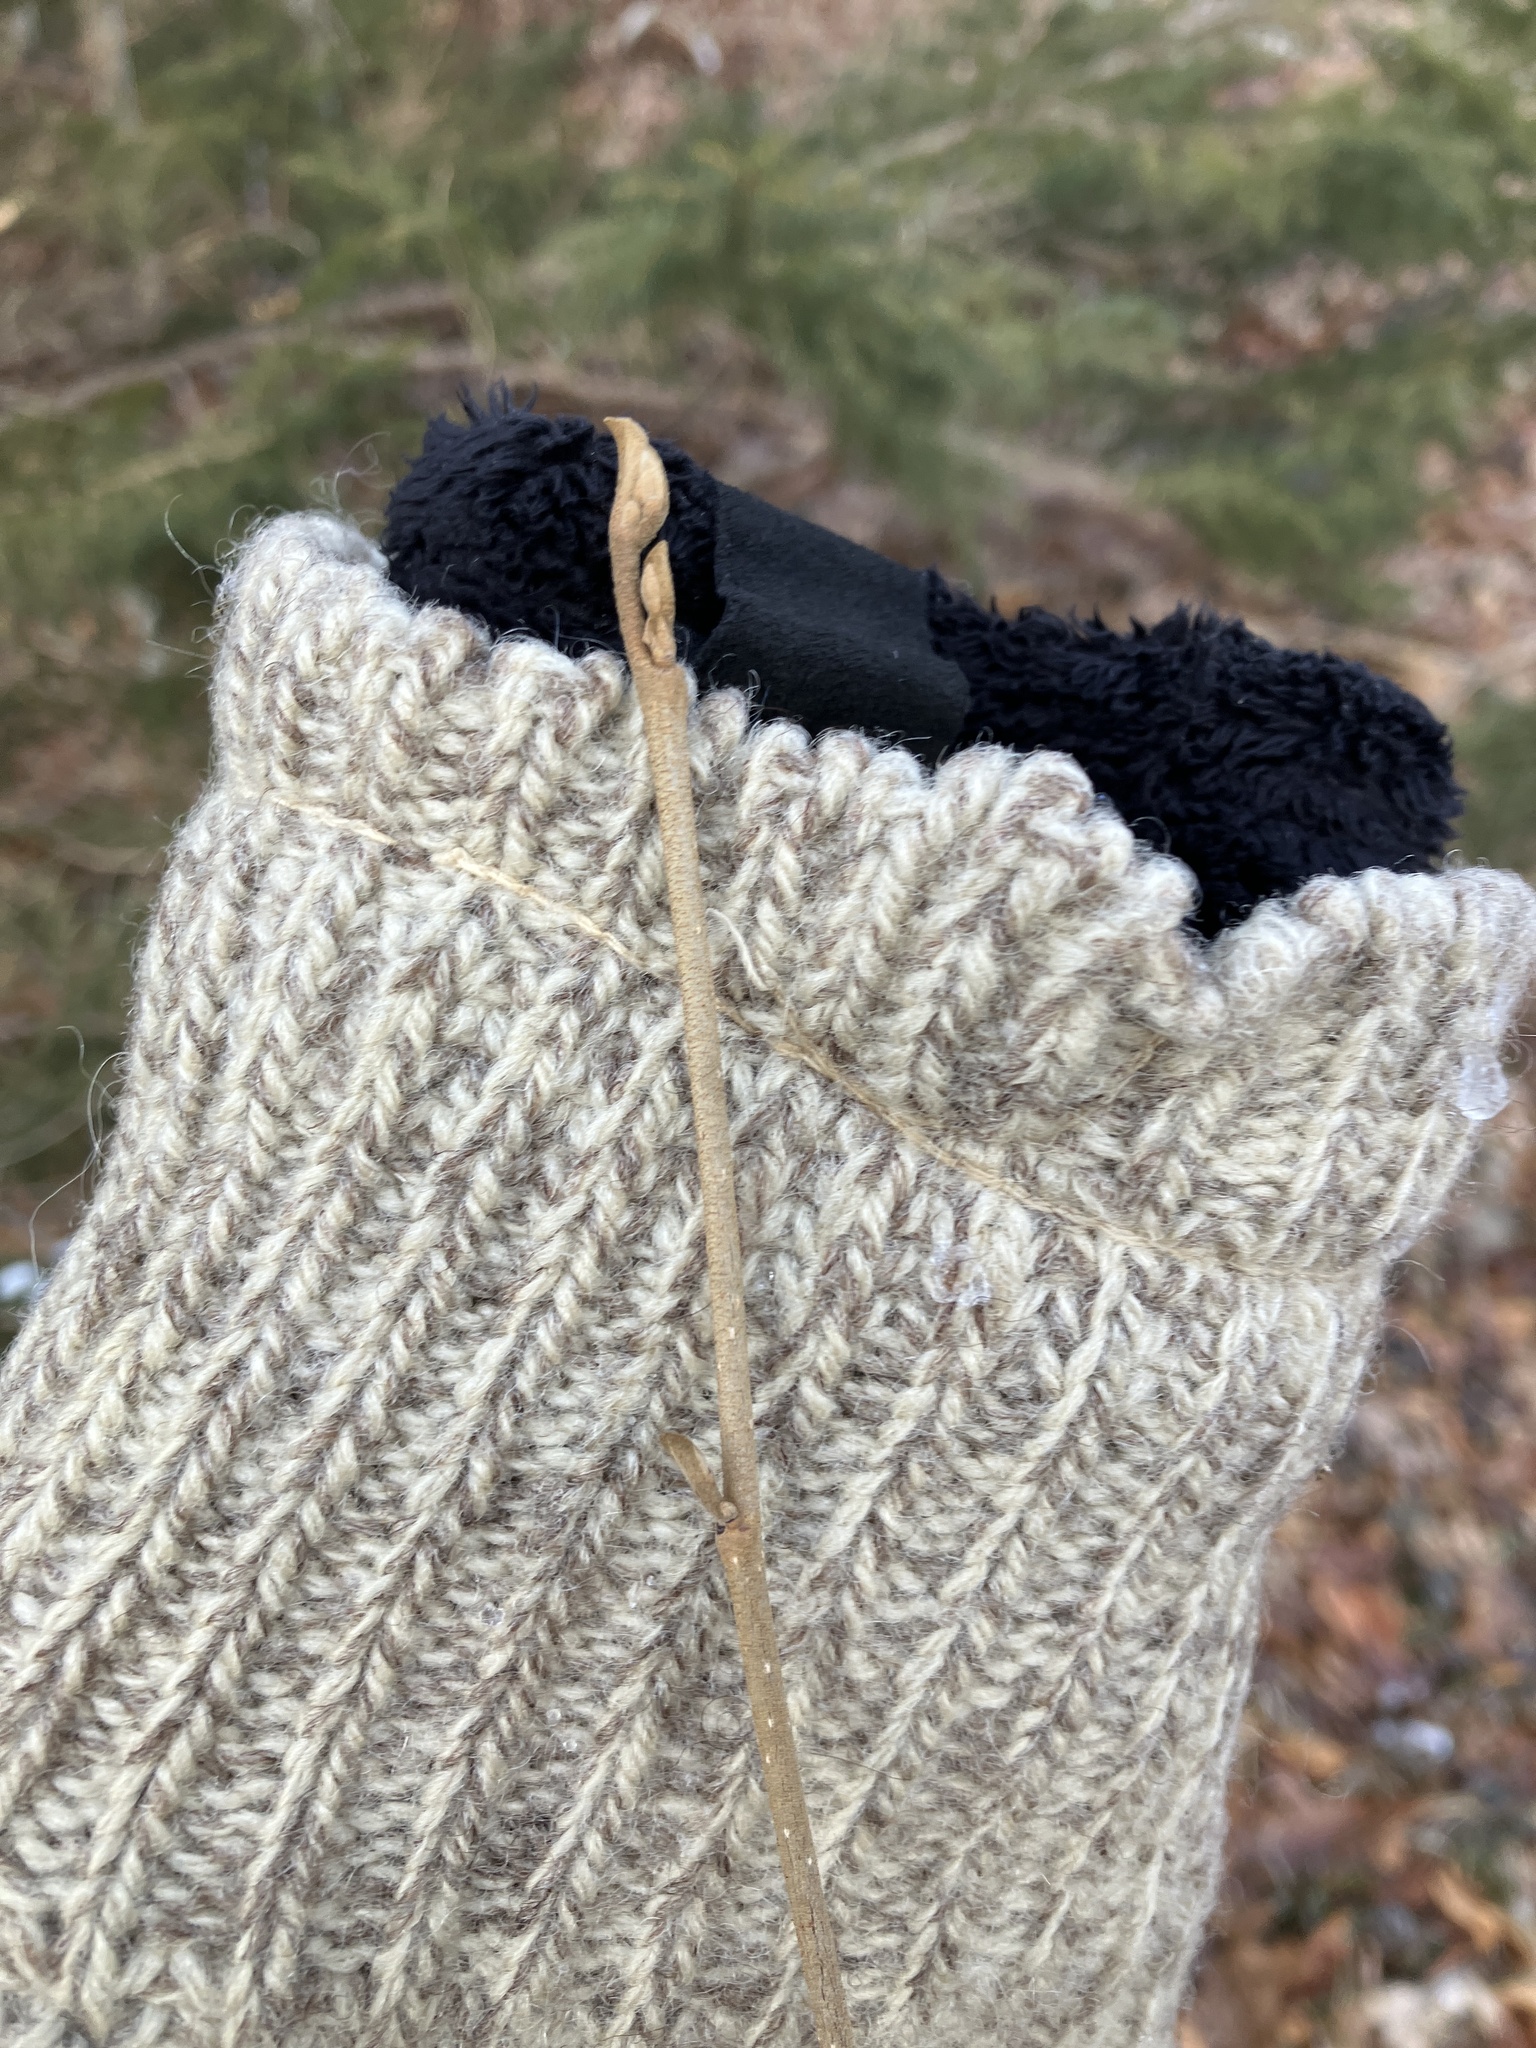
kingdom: Plantae
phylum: Tracheophyta
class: Magnoliopsida
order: Saxifragales
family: Hamamelidaceae
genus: Hamamelis
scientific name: Hamamelis virginiana
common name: Witch-hazel
